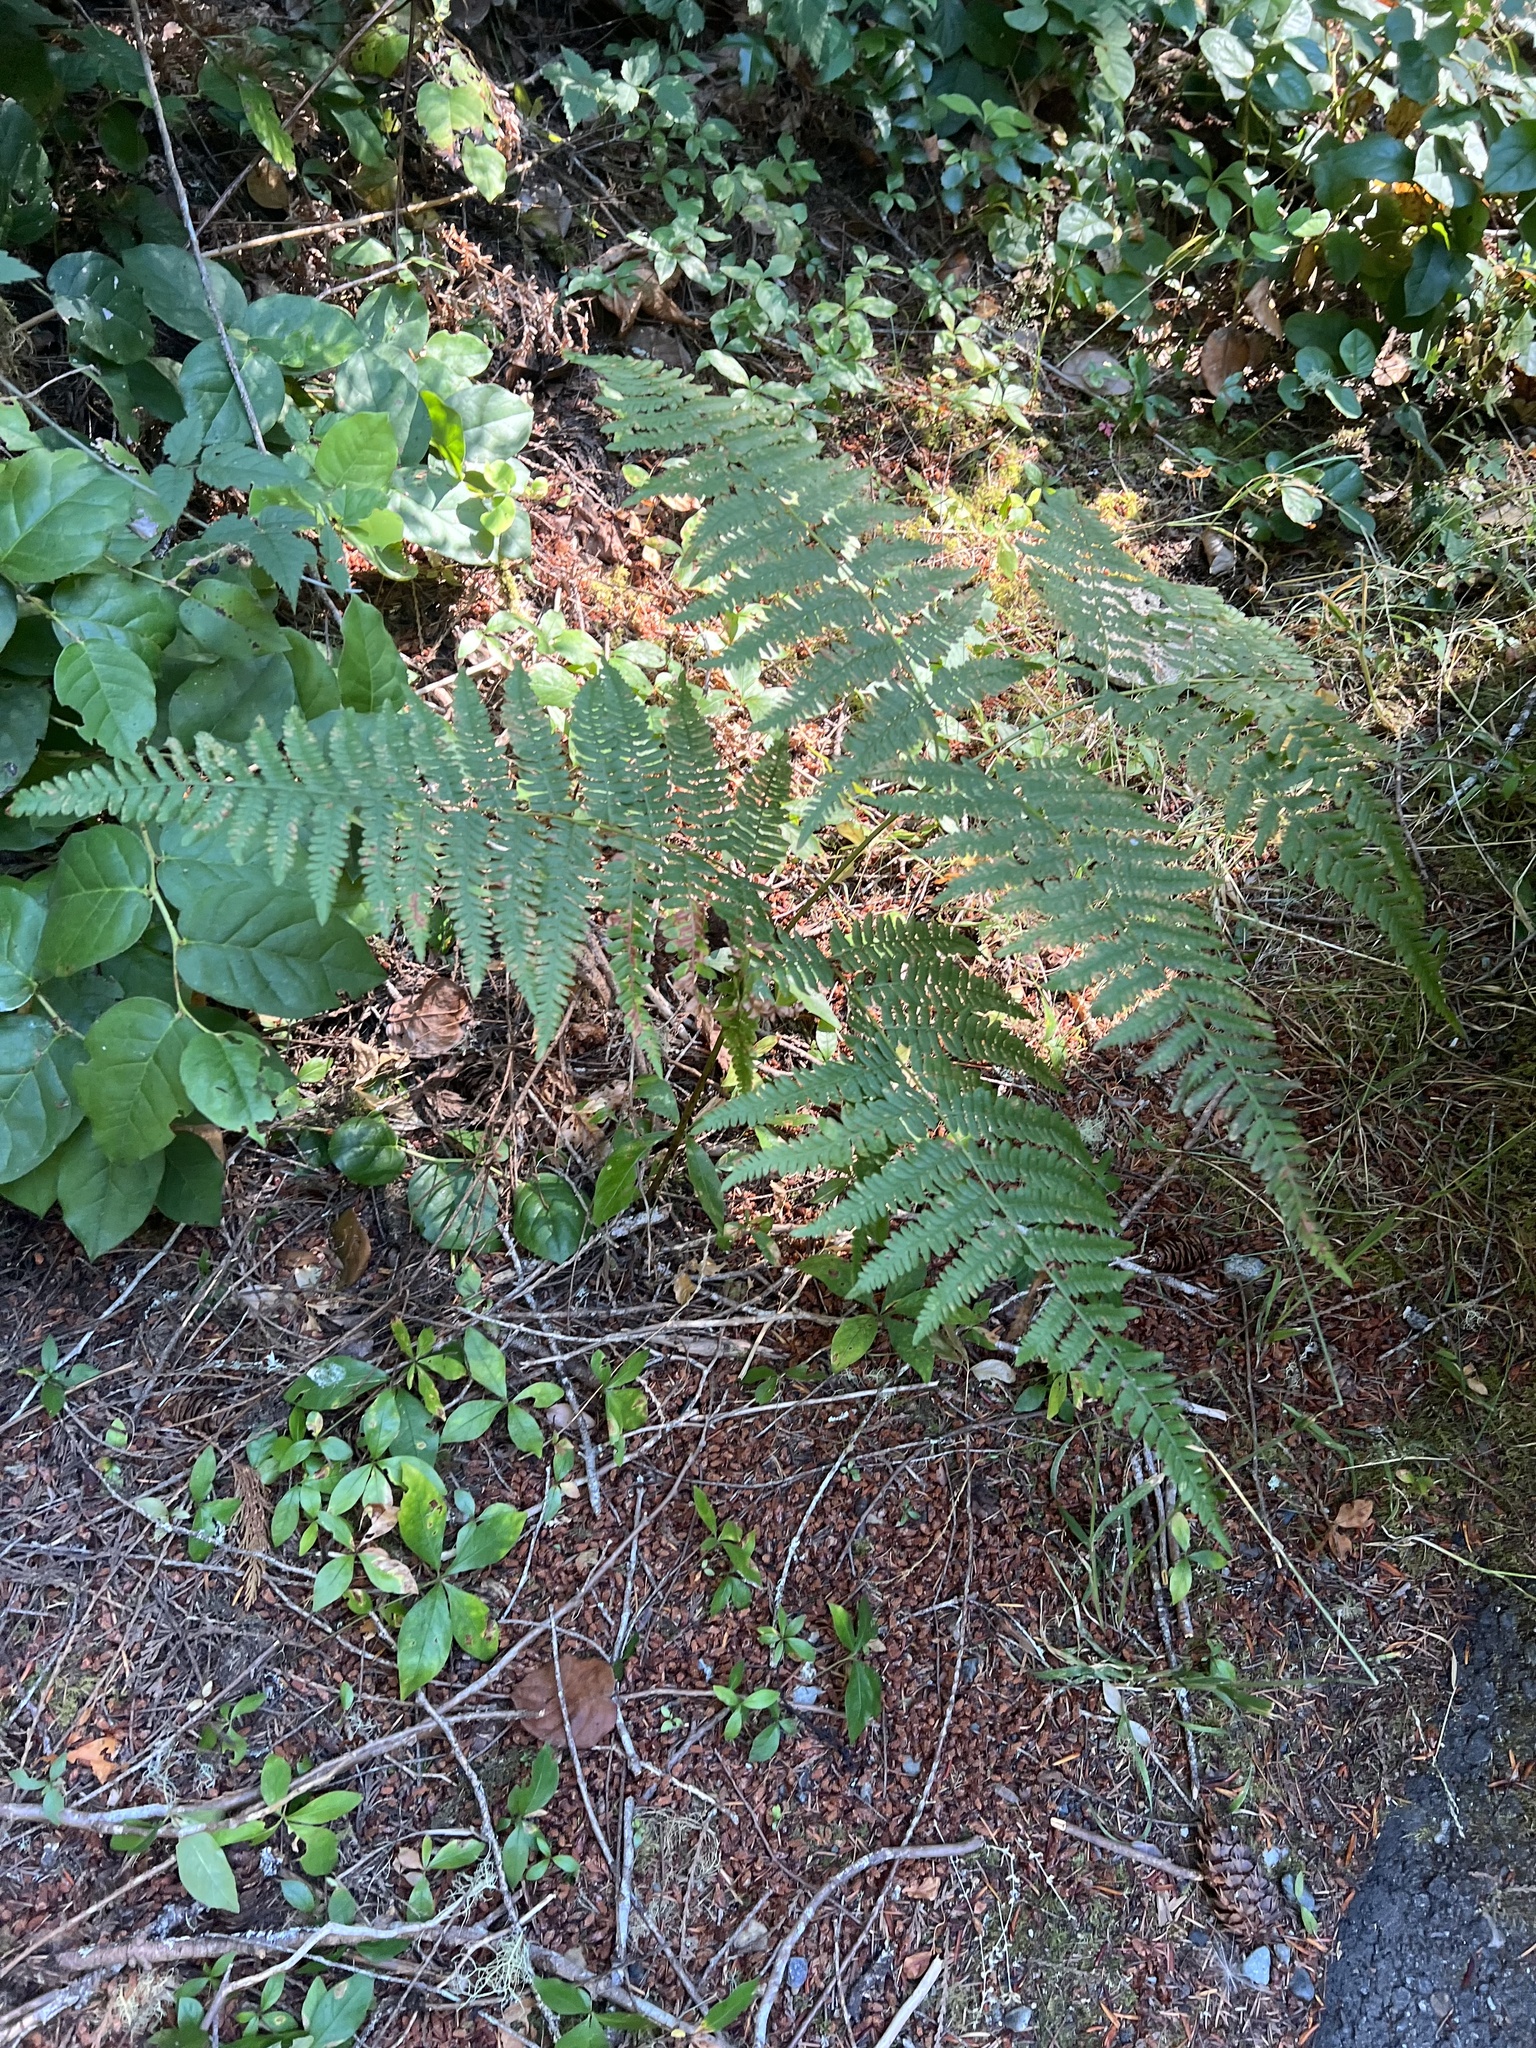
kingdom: Plantae
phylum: Tracheophyta
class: Polypodiopsida
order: Polypodiales
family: Dennstaedtiaceae
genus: Pteridium
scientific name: Pteridium aquilinum
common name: Bracken
